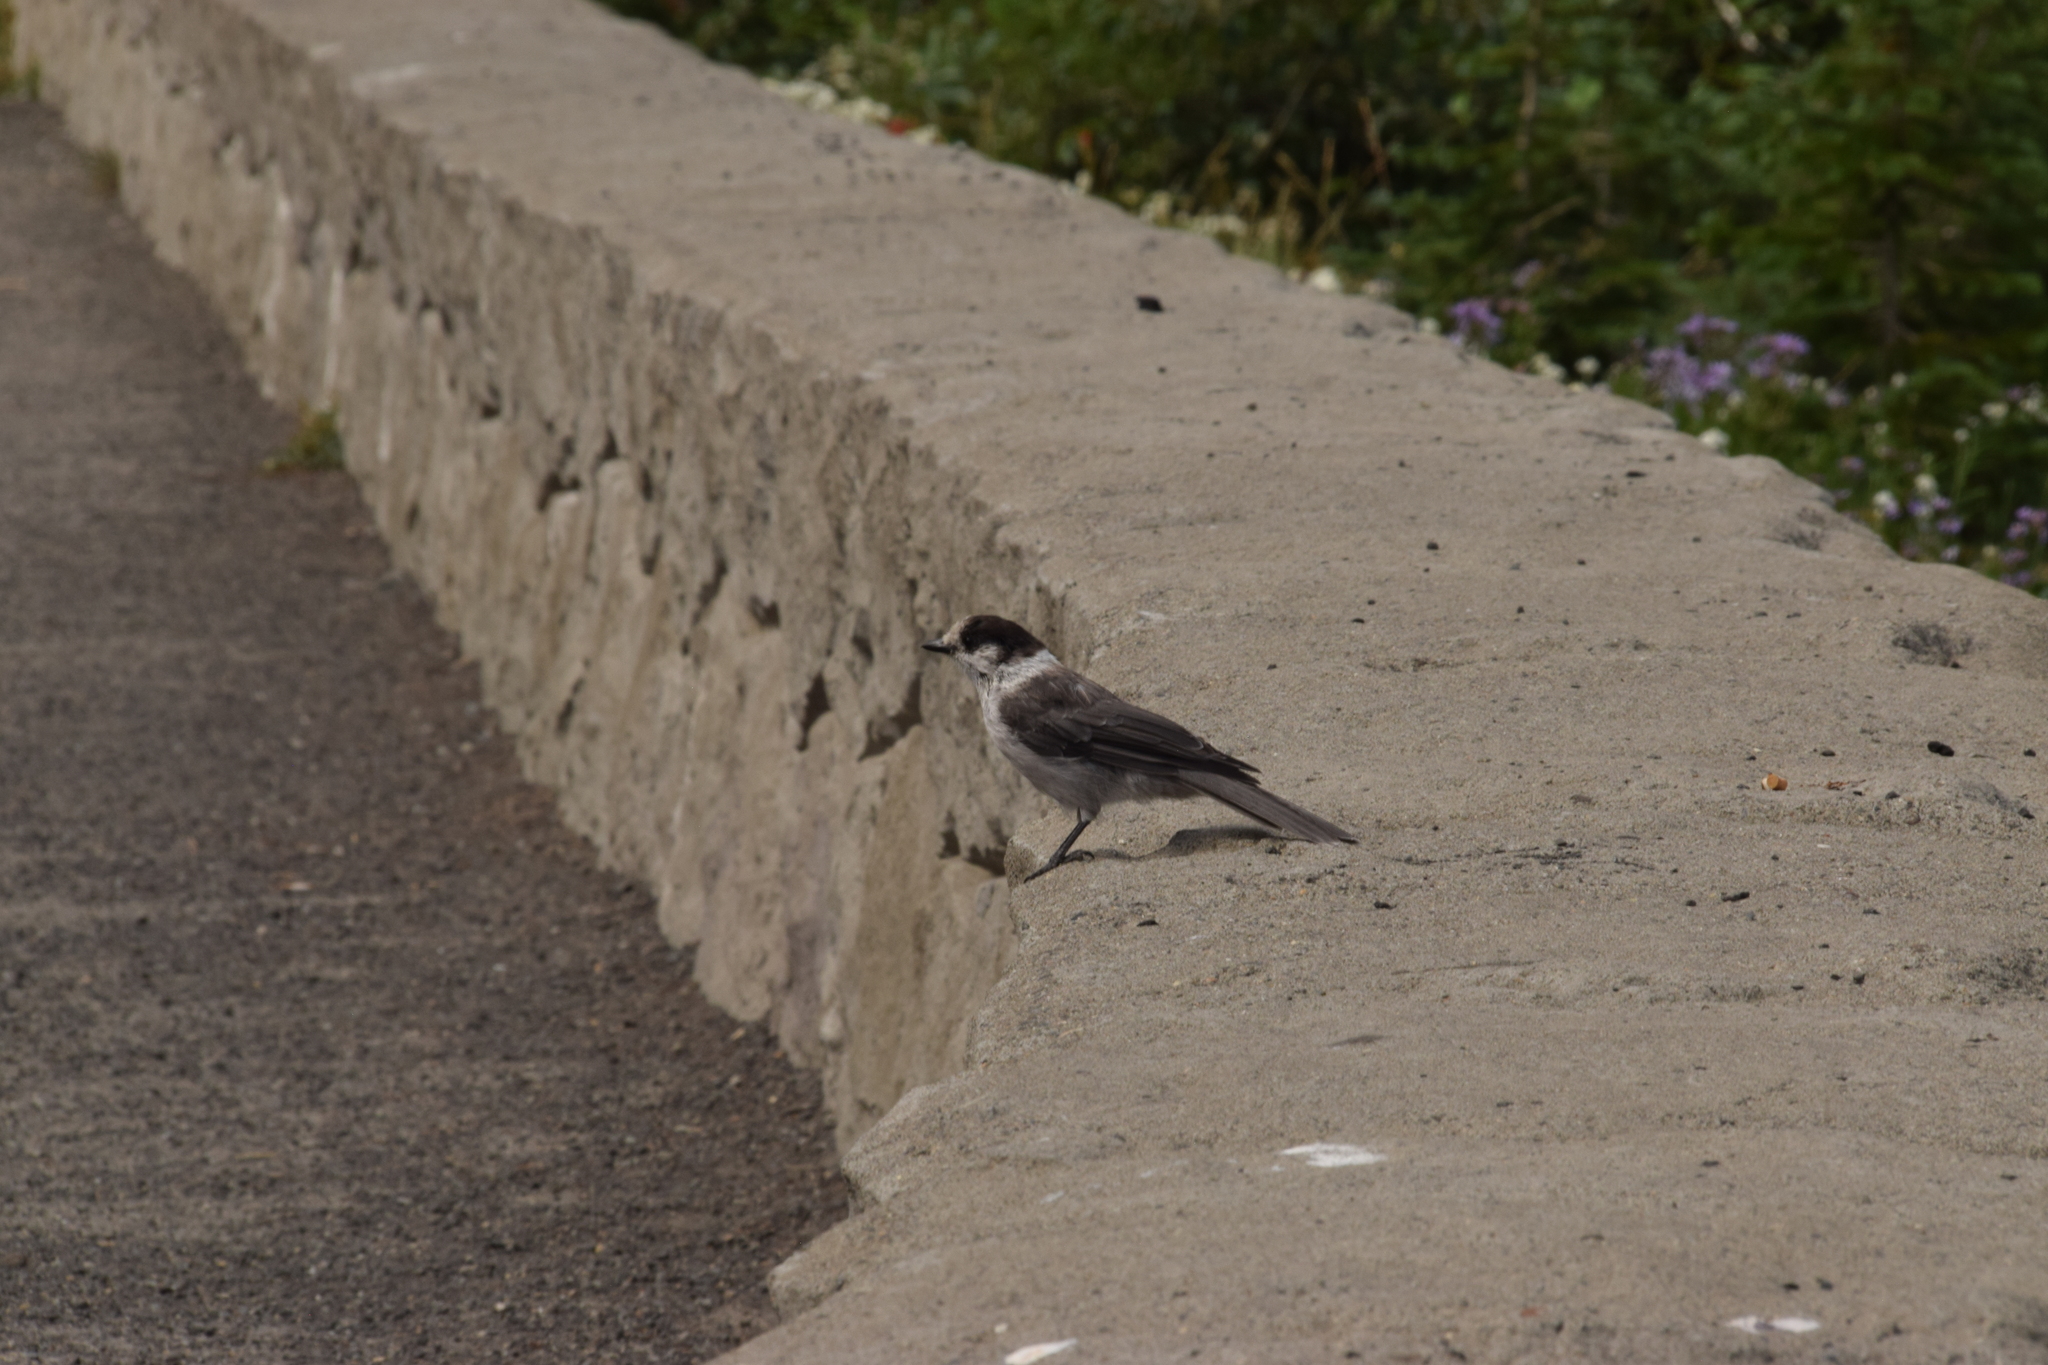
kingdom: Animalia
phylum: Chordata
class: Aves
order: Passeriformes
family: Corvidae
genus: Perisoreus
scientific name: Perisoreus canadensis
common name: Gray jay
